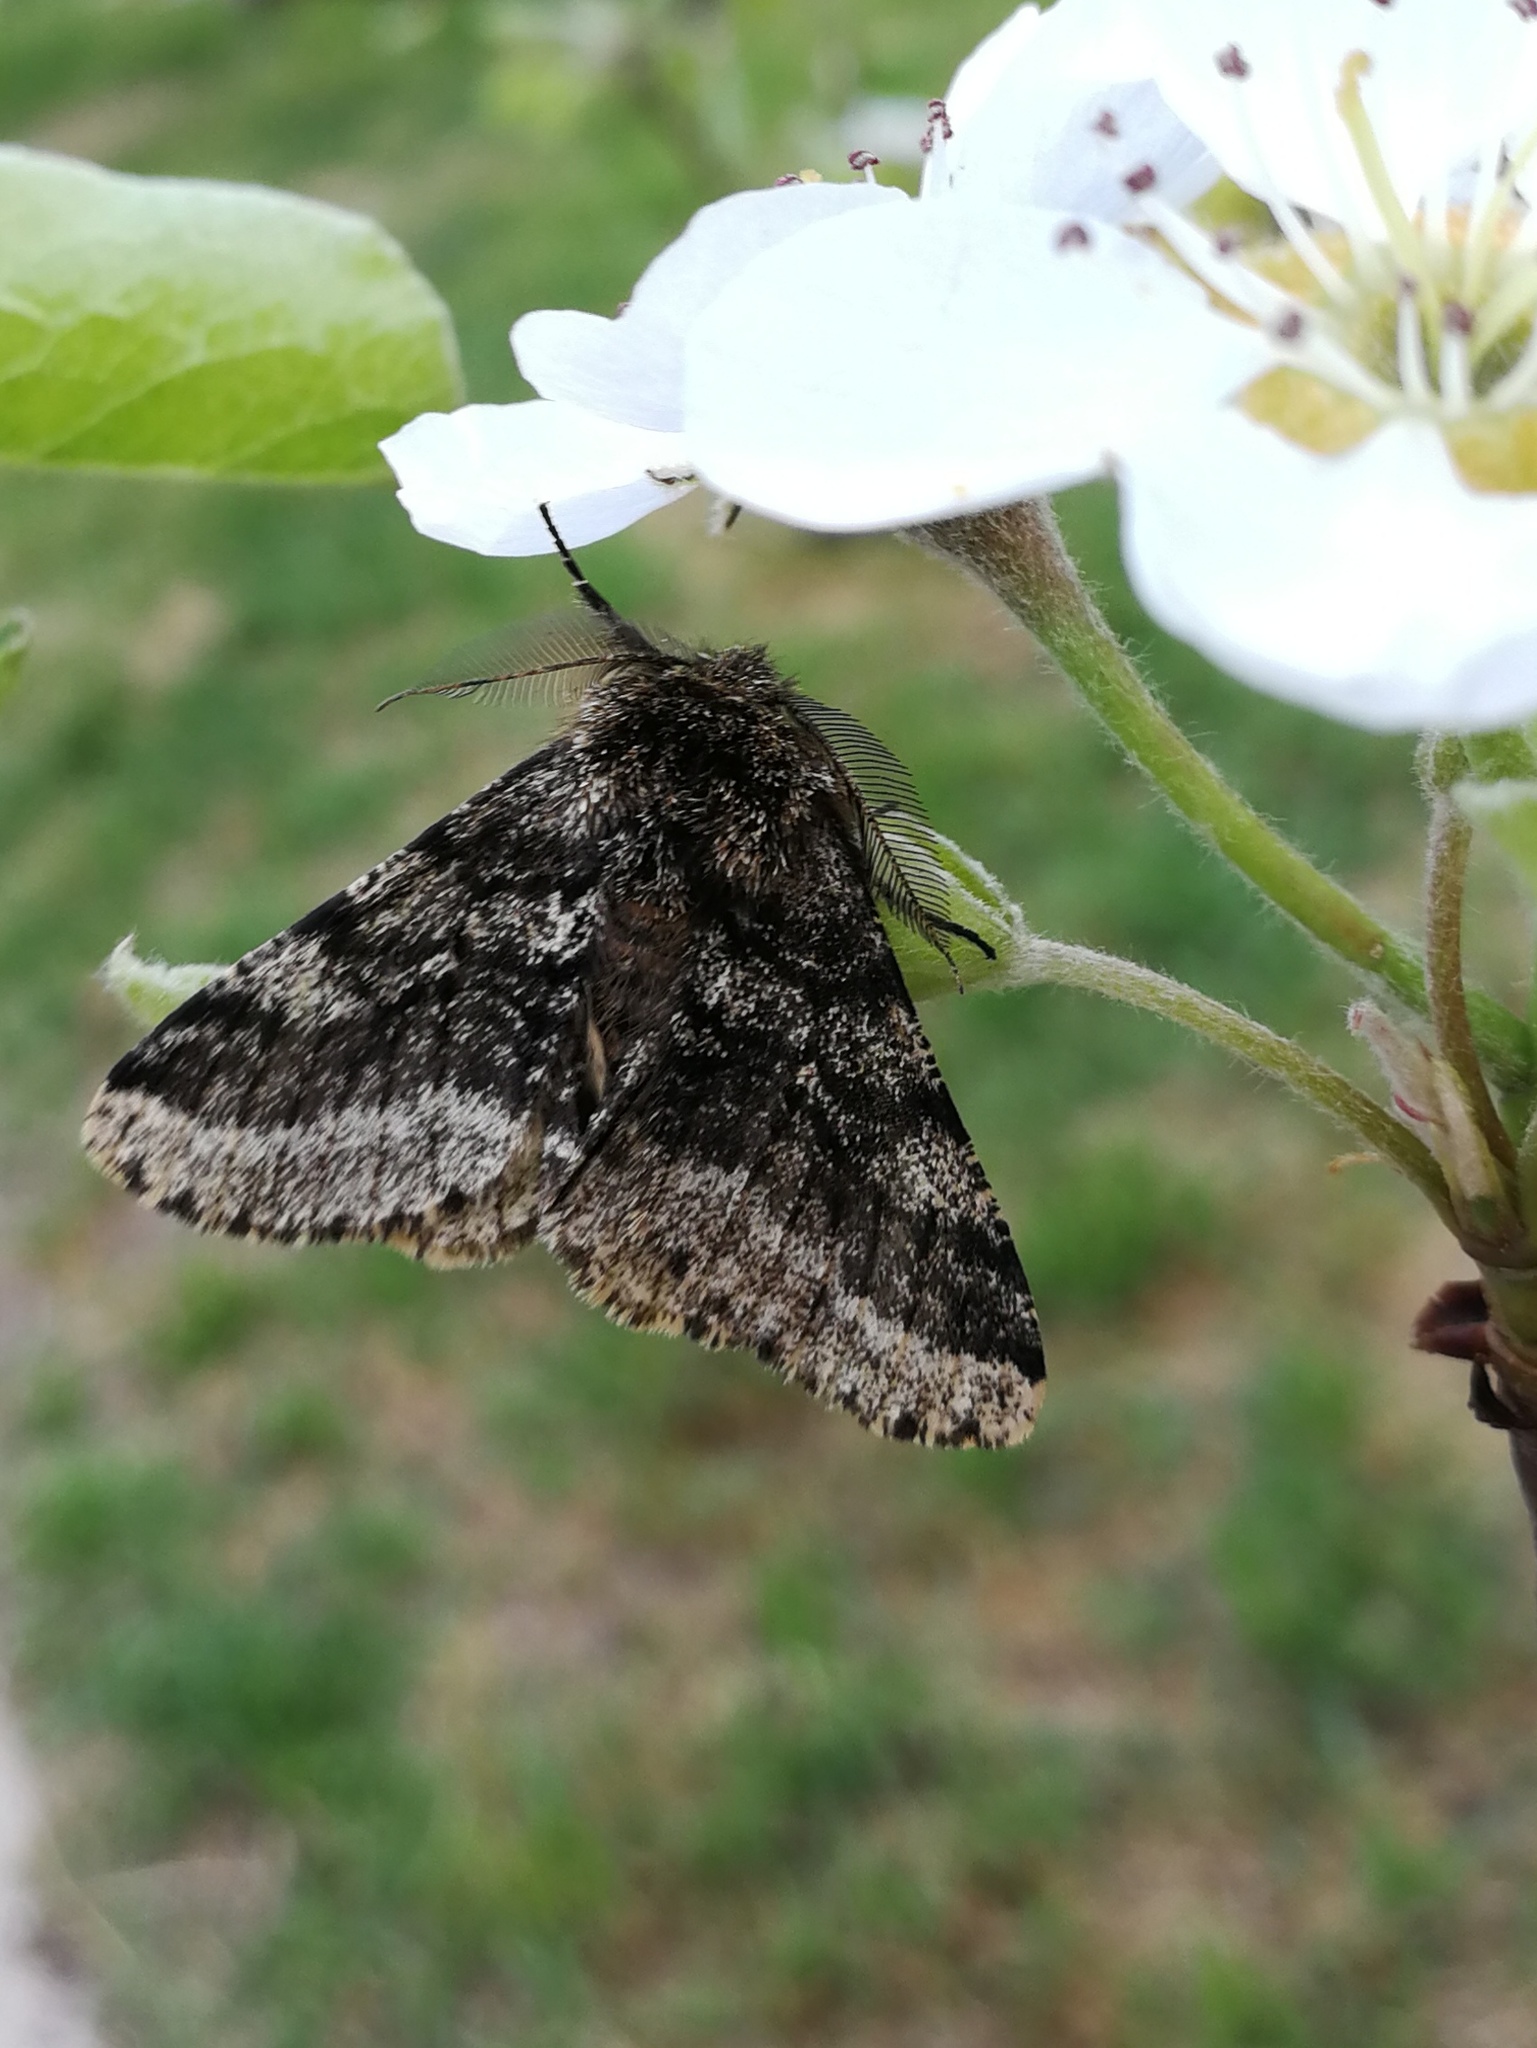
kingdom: Animalia
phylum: Arthropoda
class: Insecta
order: Lepidoptera
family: Geometridae
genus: Lycia
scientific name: Lycia hirtaria
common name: Brindled beauty
